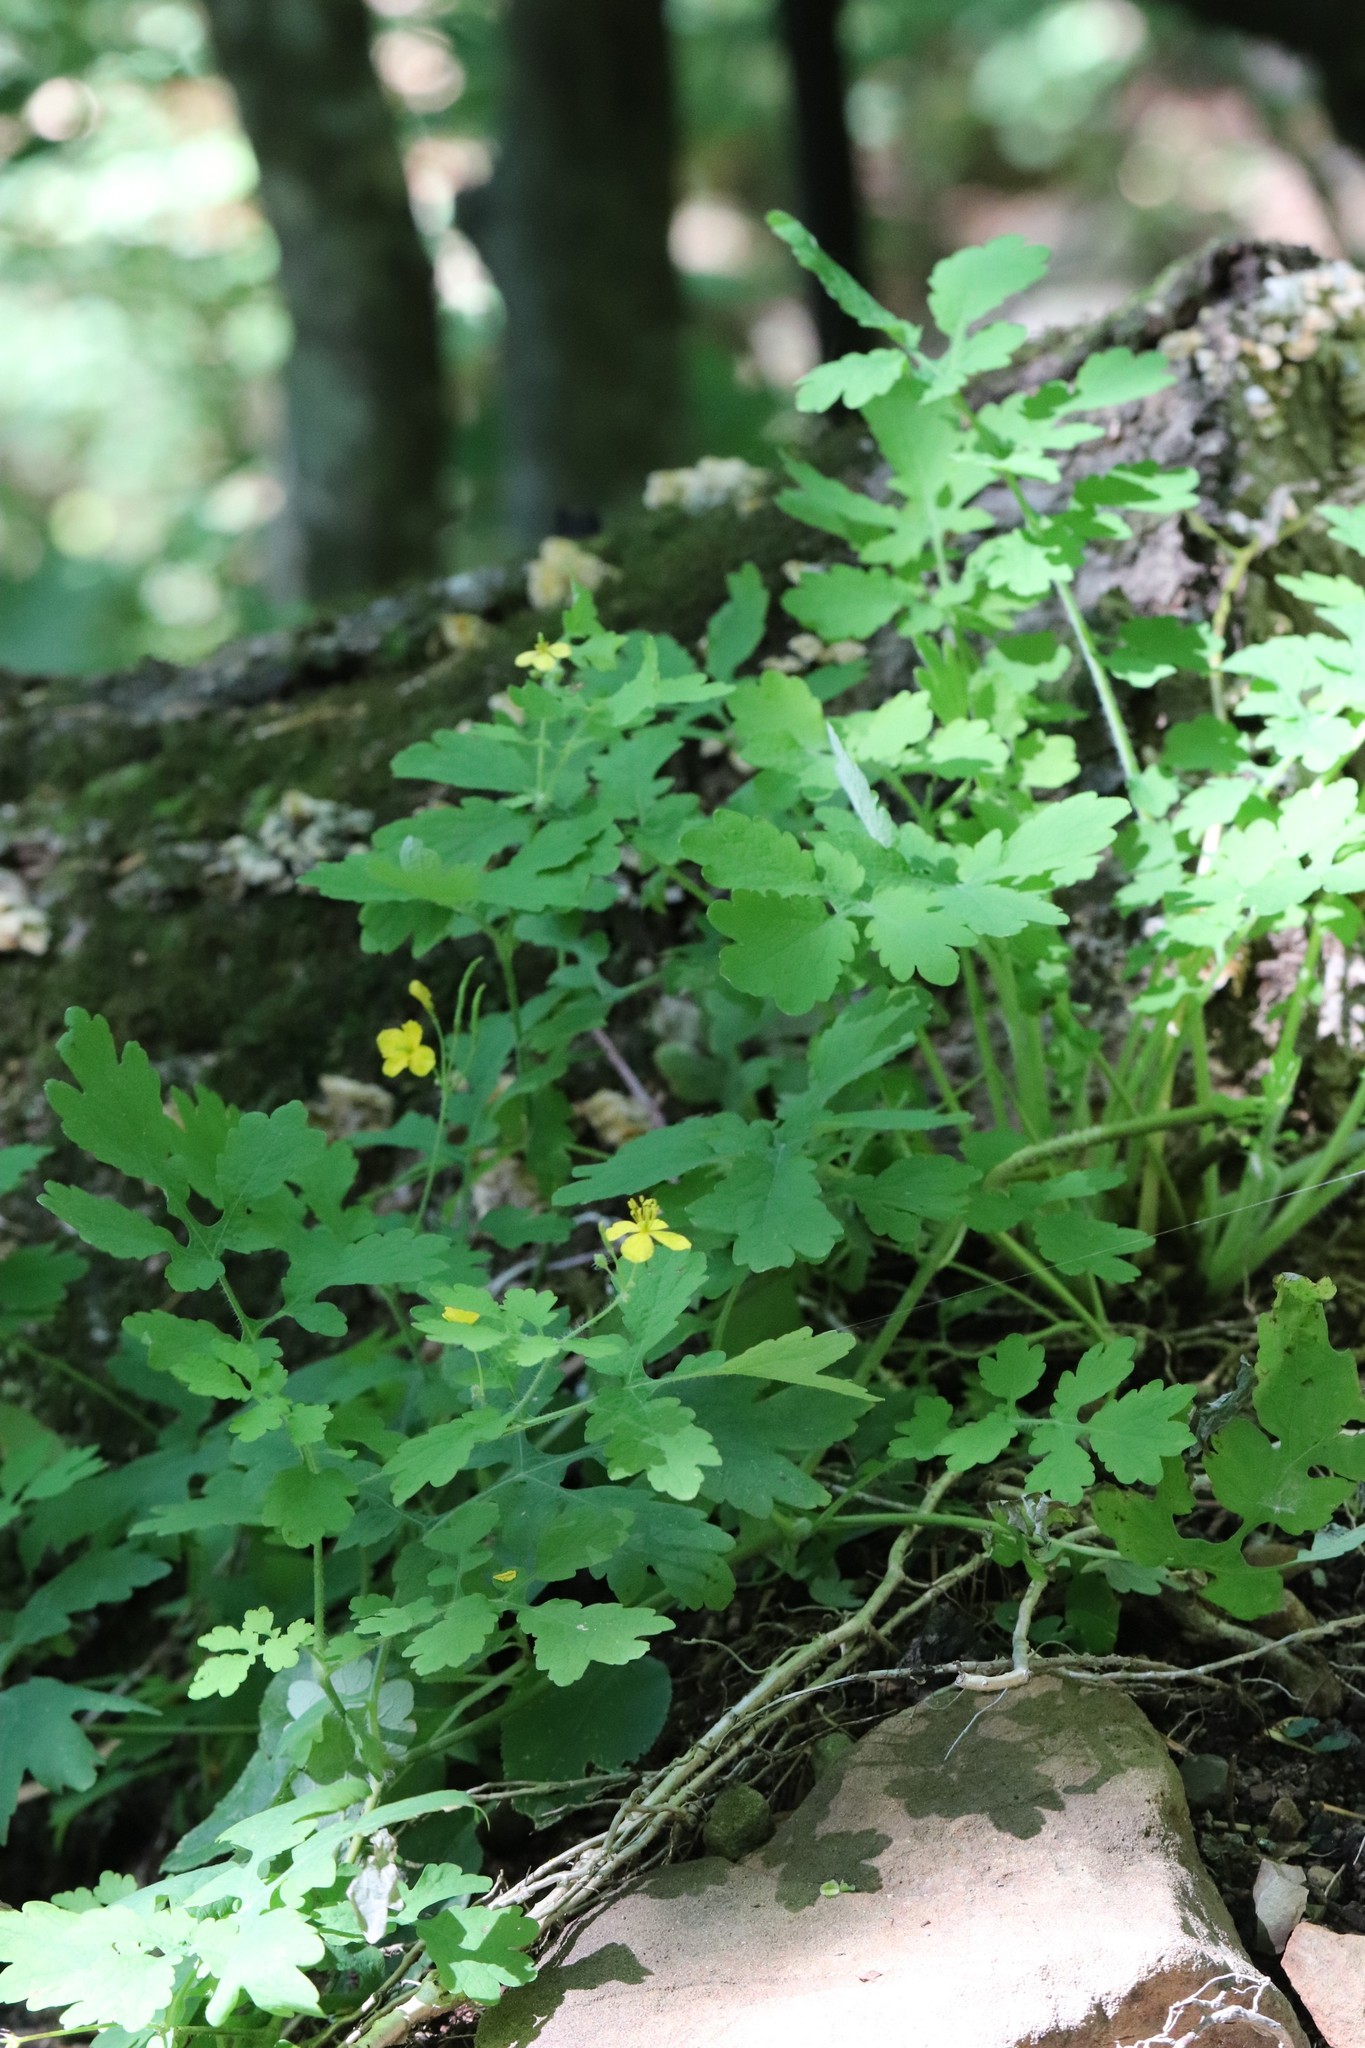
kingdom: Plantae
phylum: Tracheophyta
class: Magnoliopsida
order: Ranunculales
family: Papaveraceae
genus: Chelidonium
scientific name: Chelidonium majus
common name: Greater celandine
